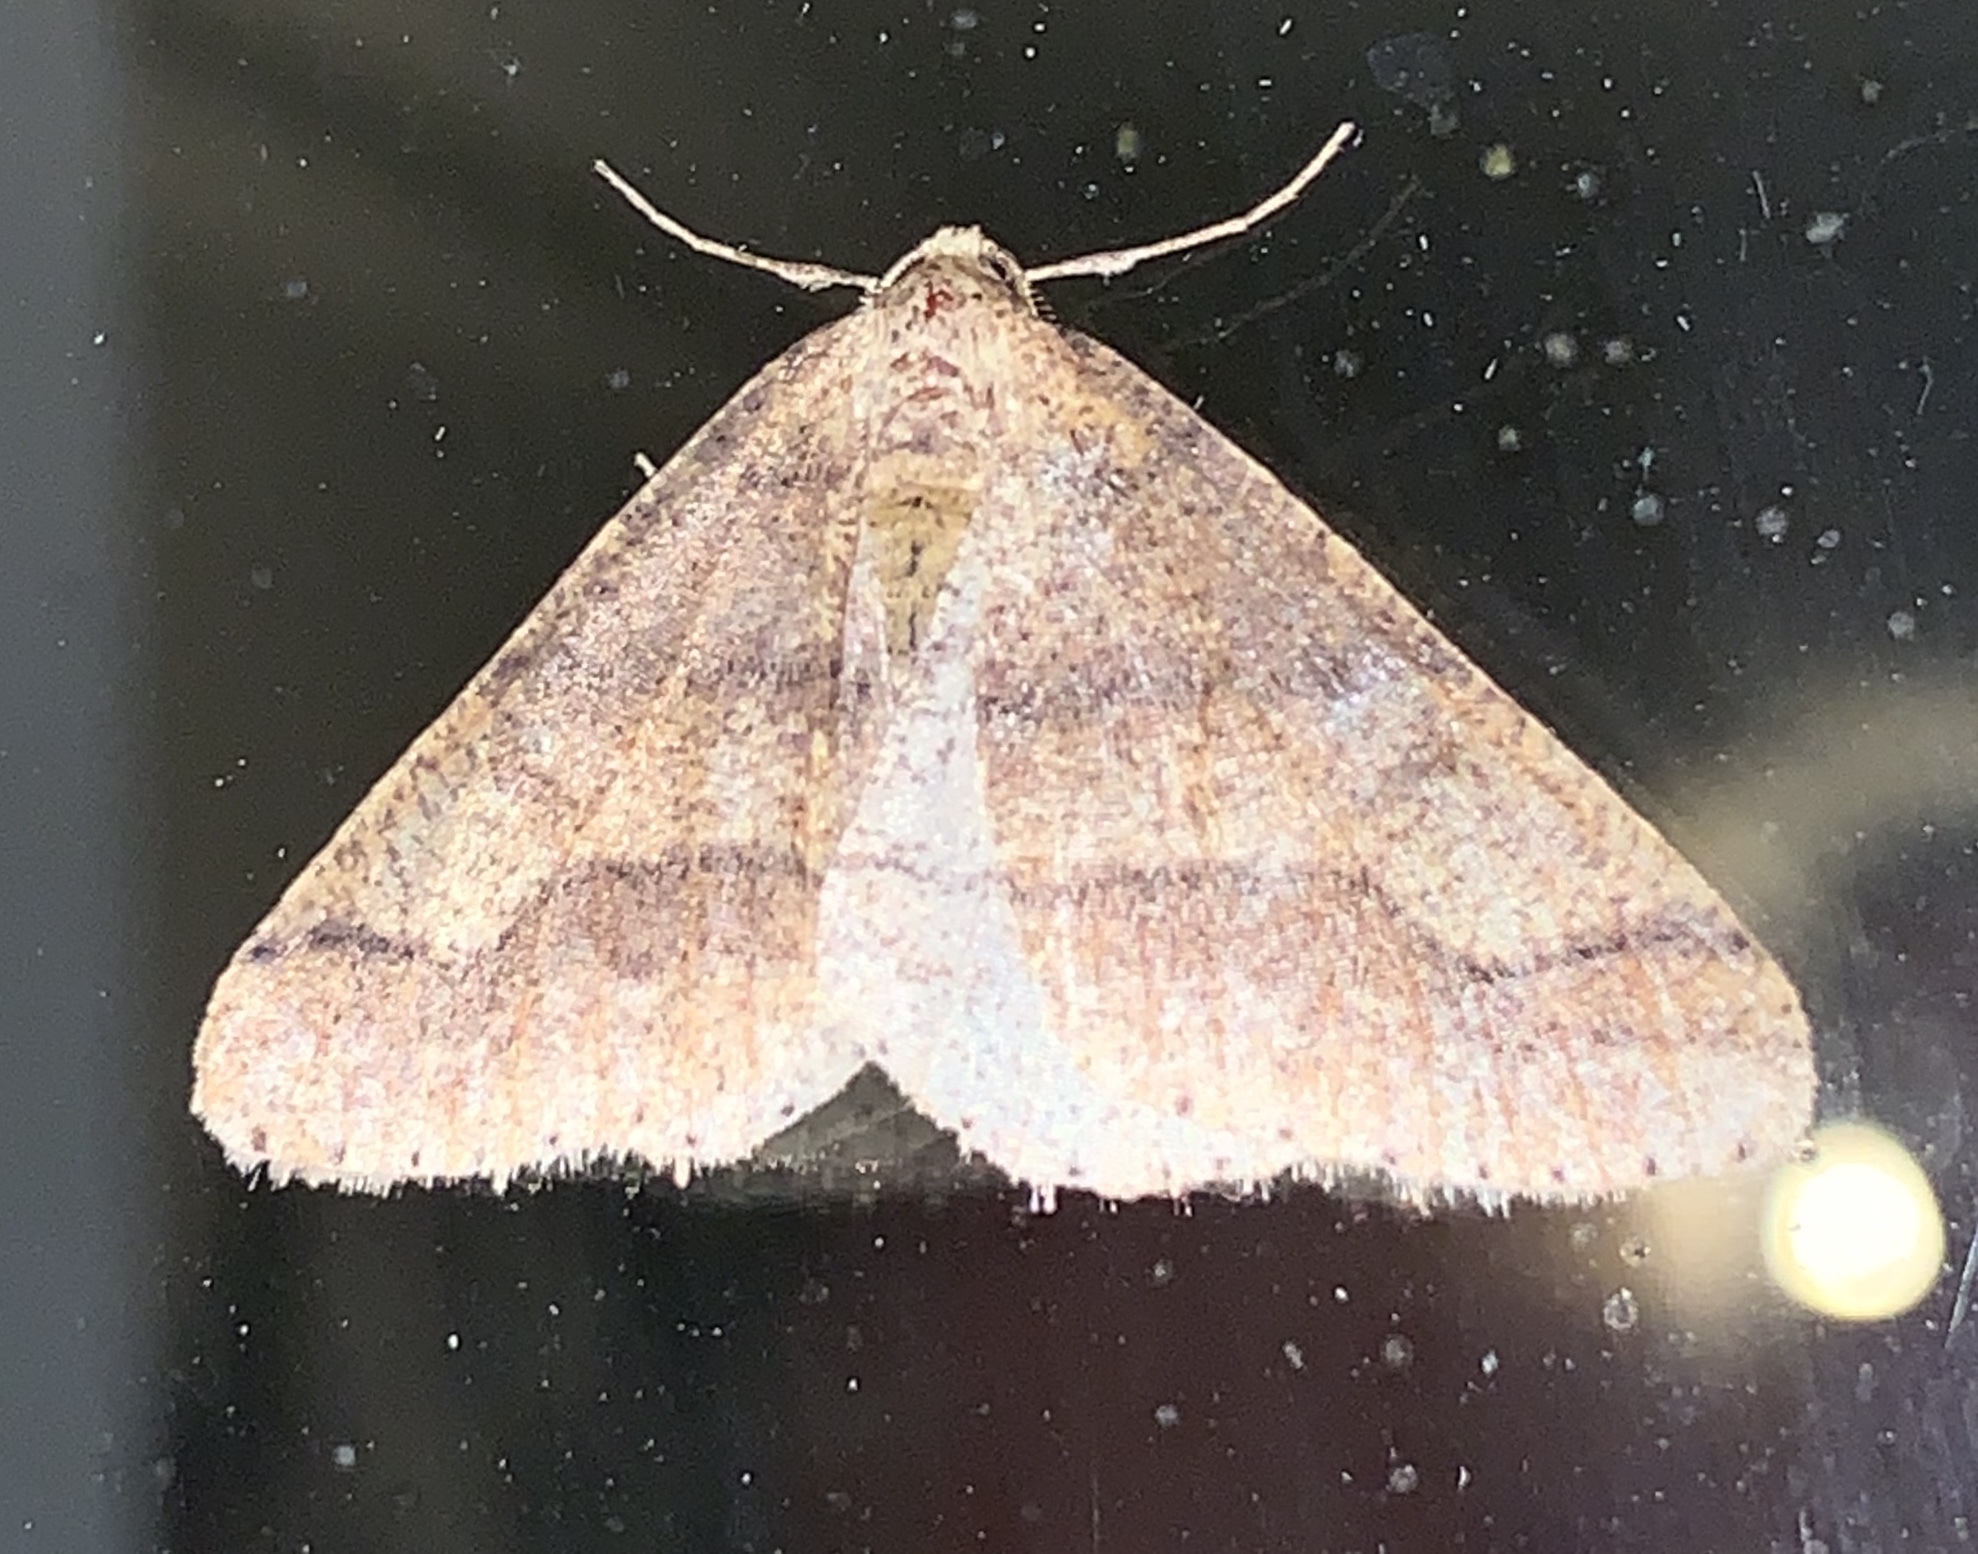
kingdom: Animalia
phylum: Arthropoda
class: Insecta
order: Lepidoptera
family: Geometridae
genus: Agriopis
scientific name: Agriopis marginaria
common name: Dotted border
